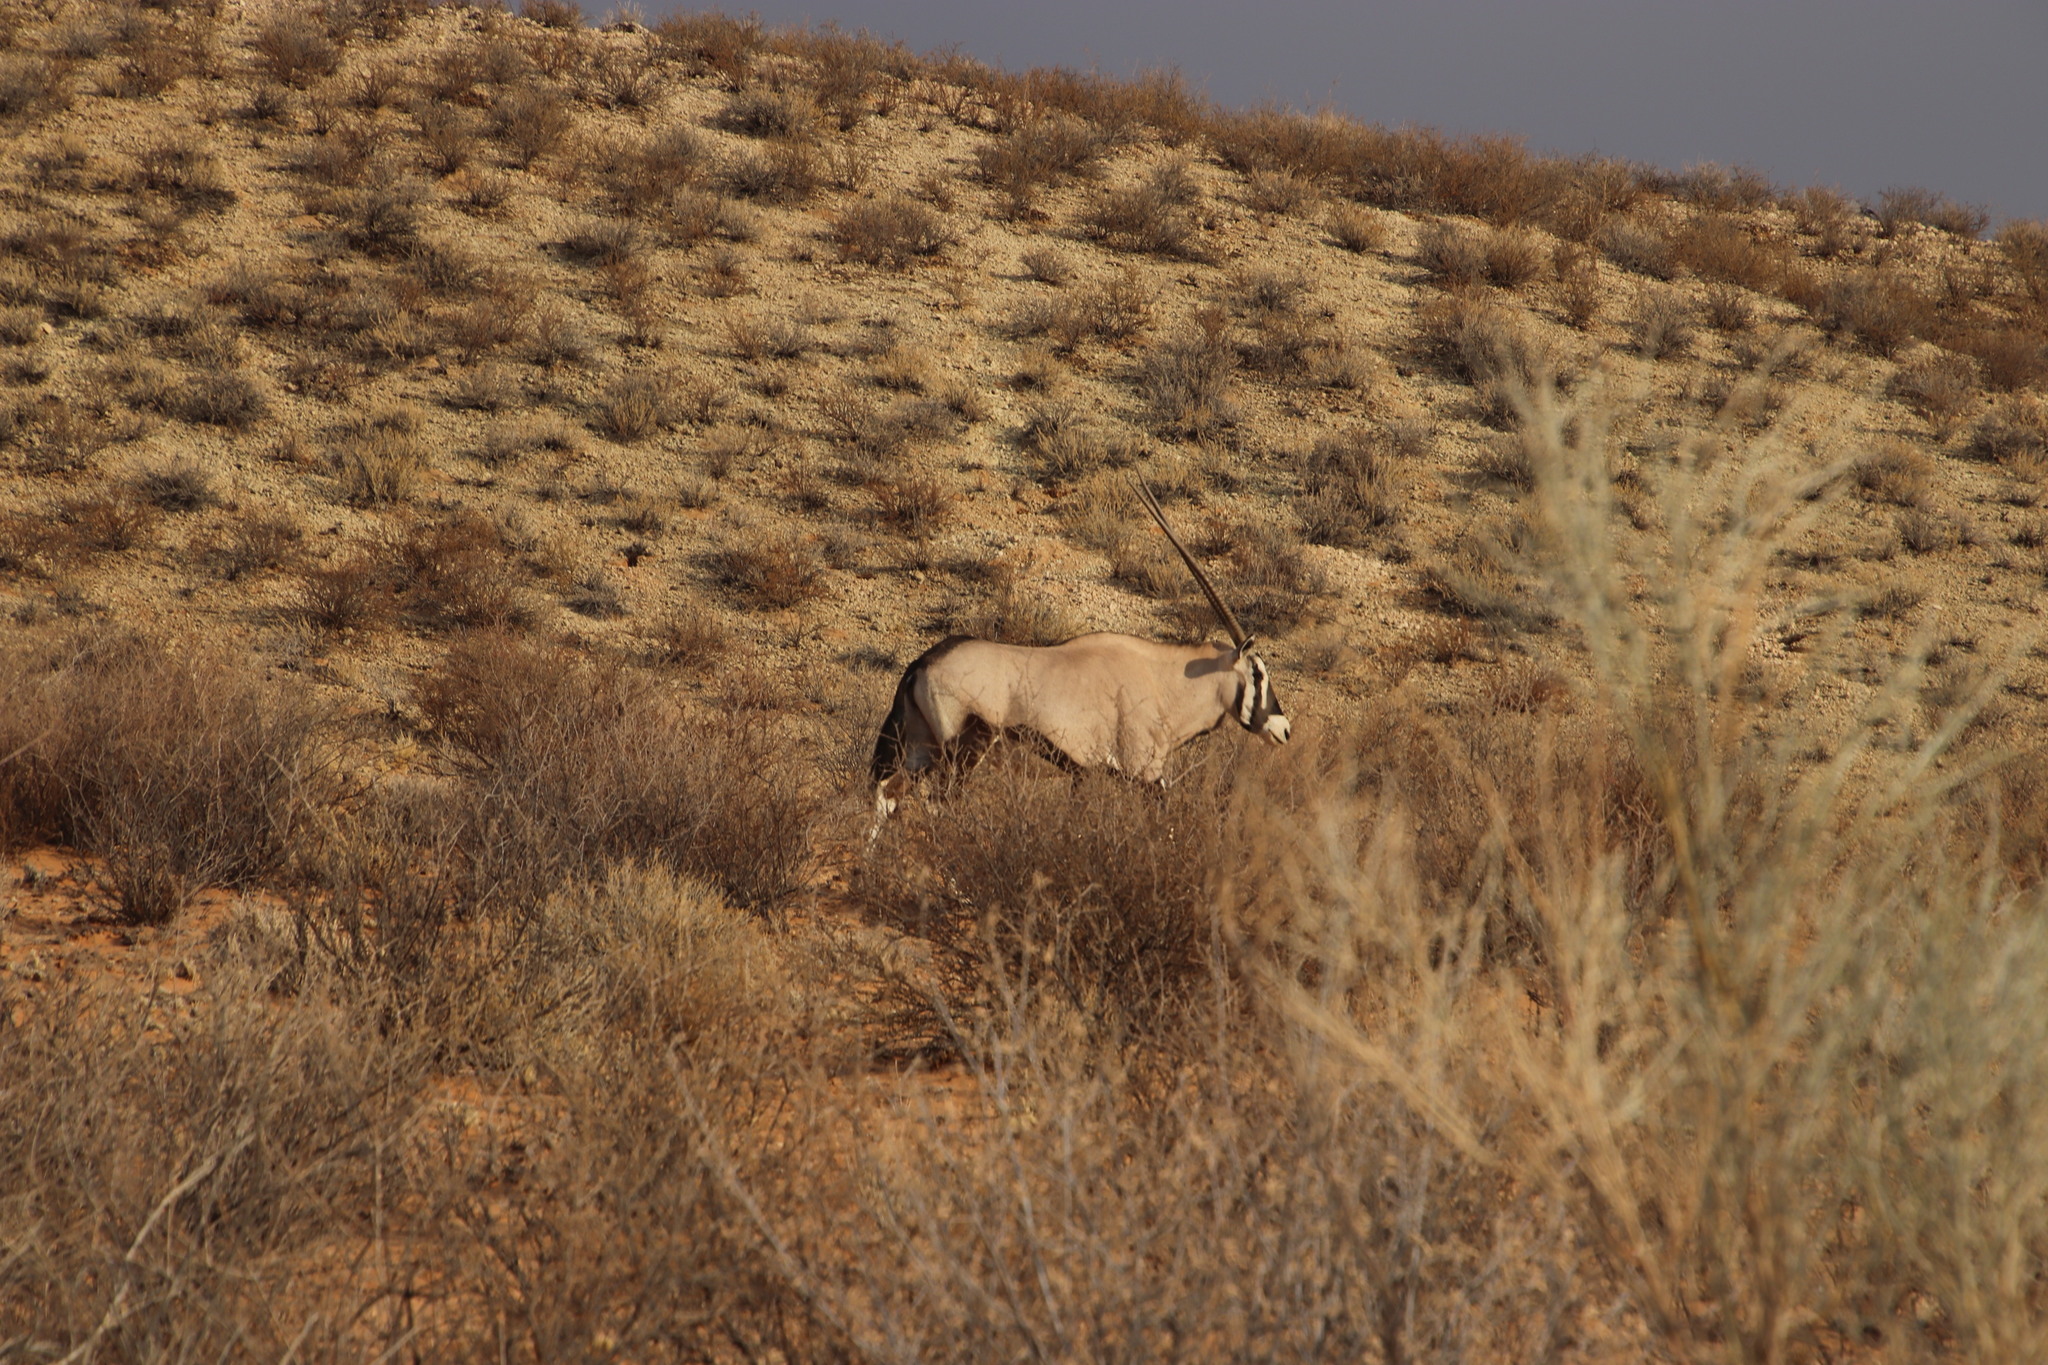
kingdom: Animalia
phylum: Chordata
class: Mammalia
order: Artiodactyla
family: Bovidae
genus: Oryx
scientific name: Oryx gazella
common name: Gemsbok
